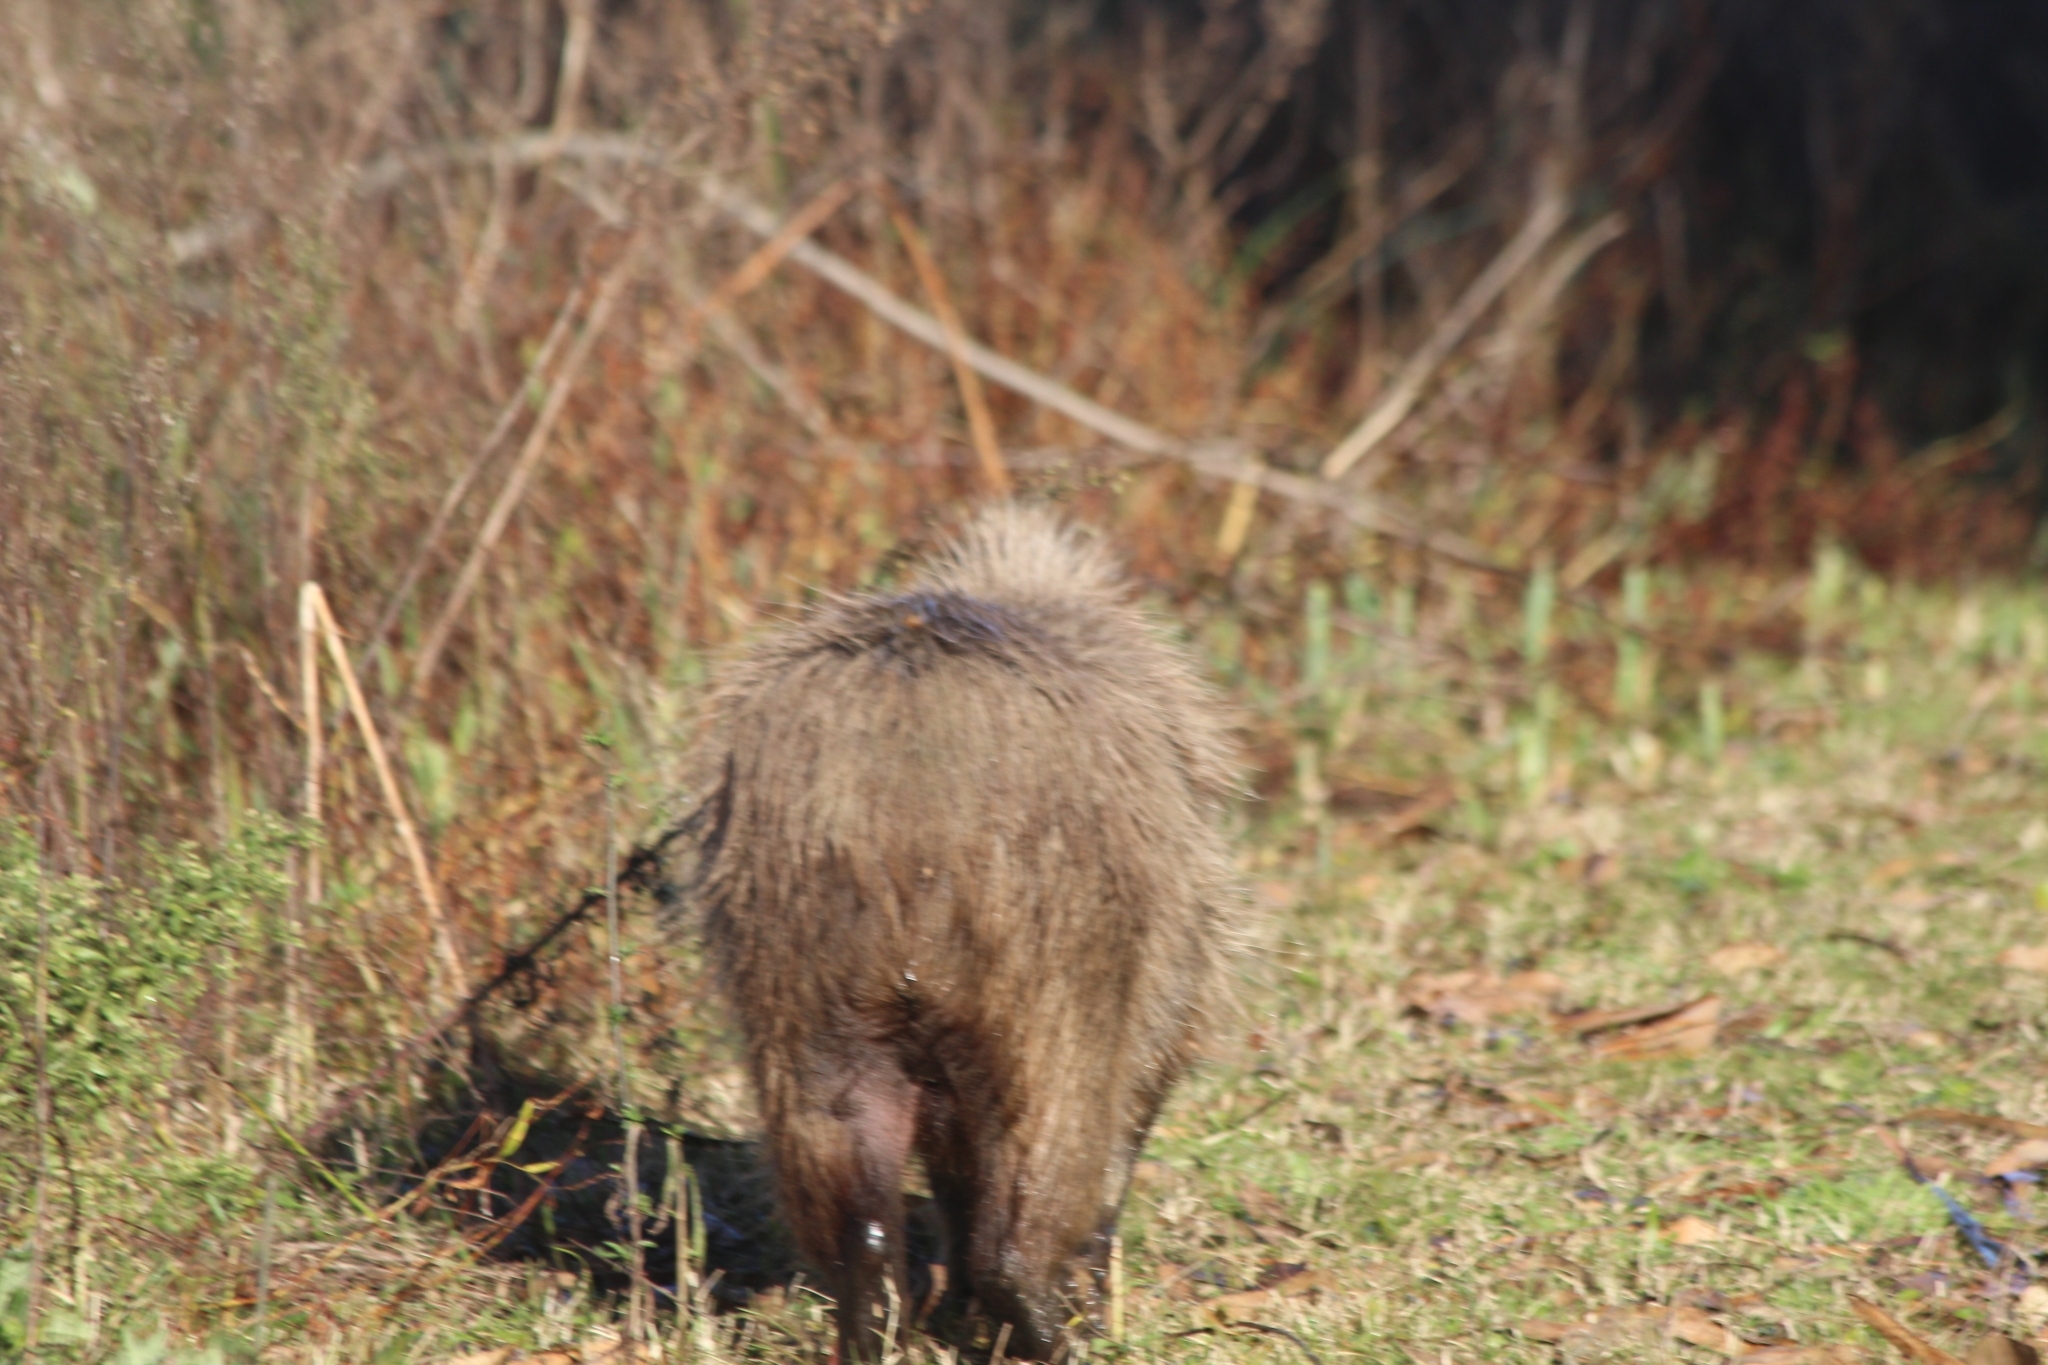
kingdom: Animalia
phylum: Chordata
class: Mammalia
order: Rodentia
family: Caviidae
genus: Hydrochoerus
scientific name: Hydrochoerus hydrochaeris
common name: Capybara
